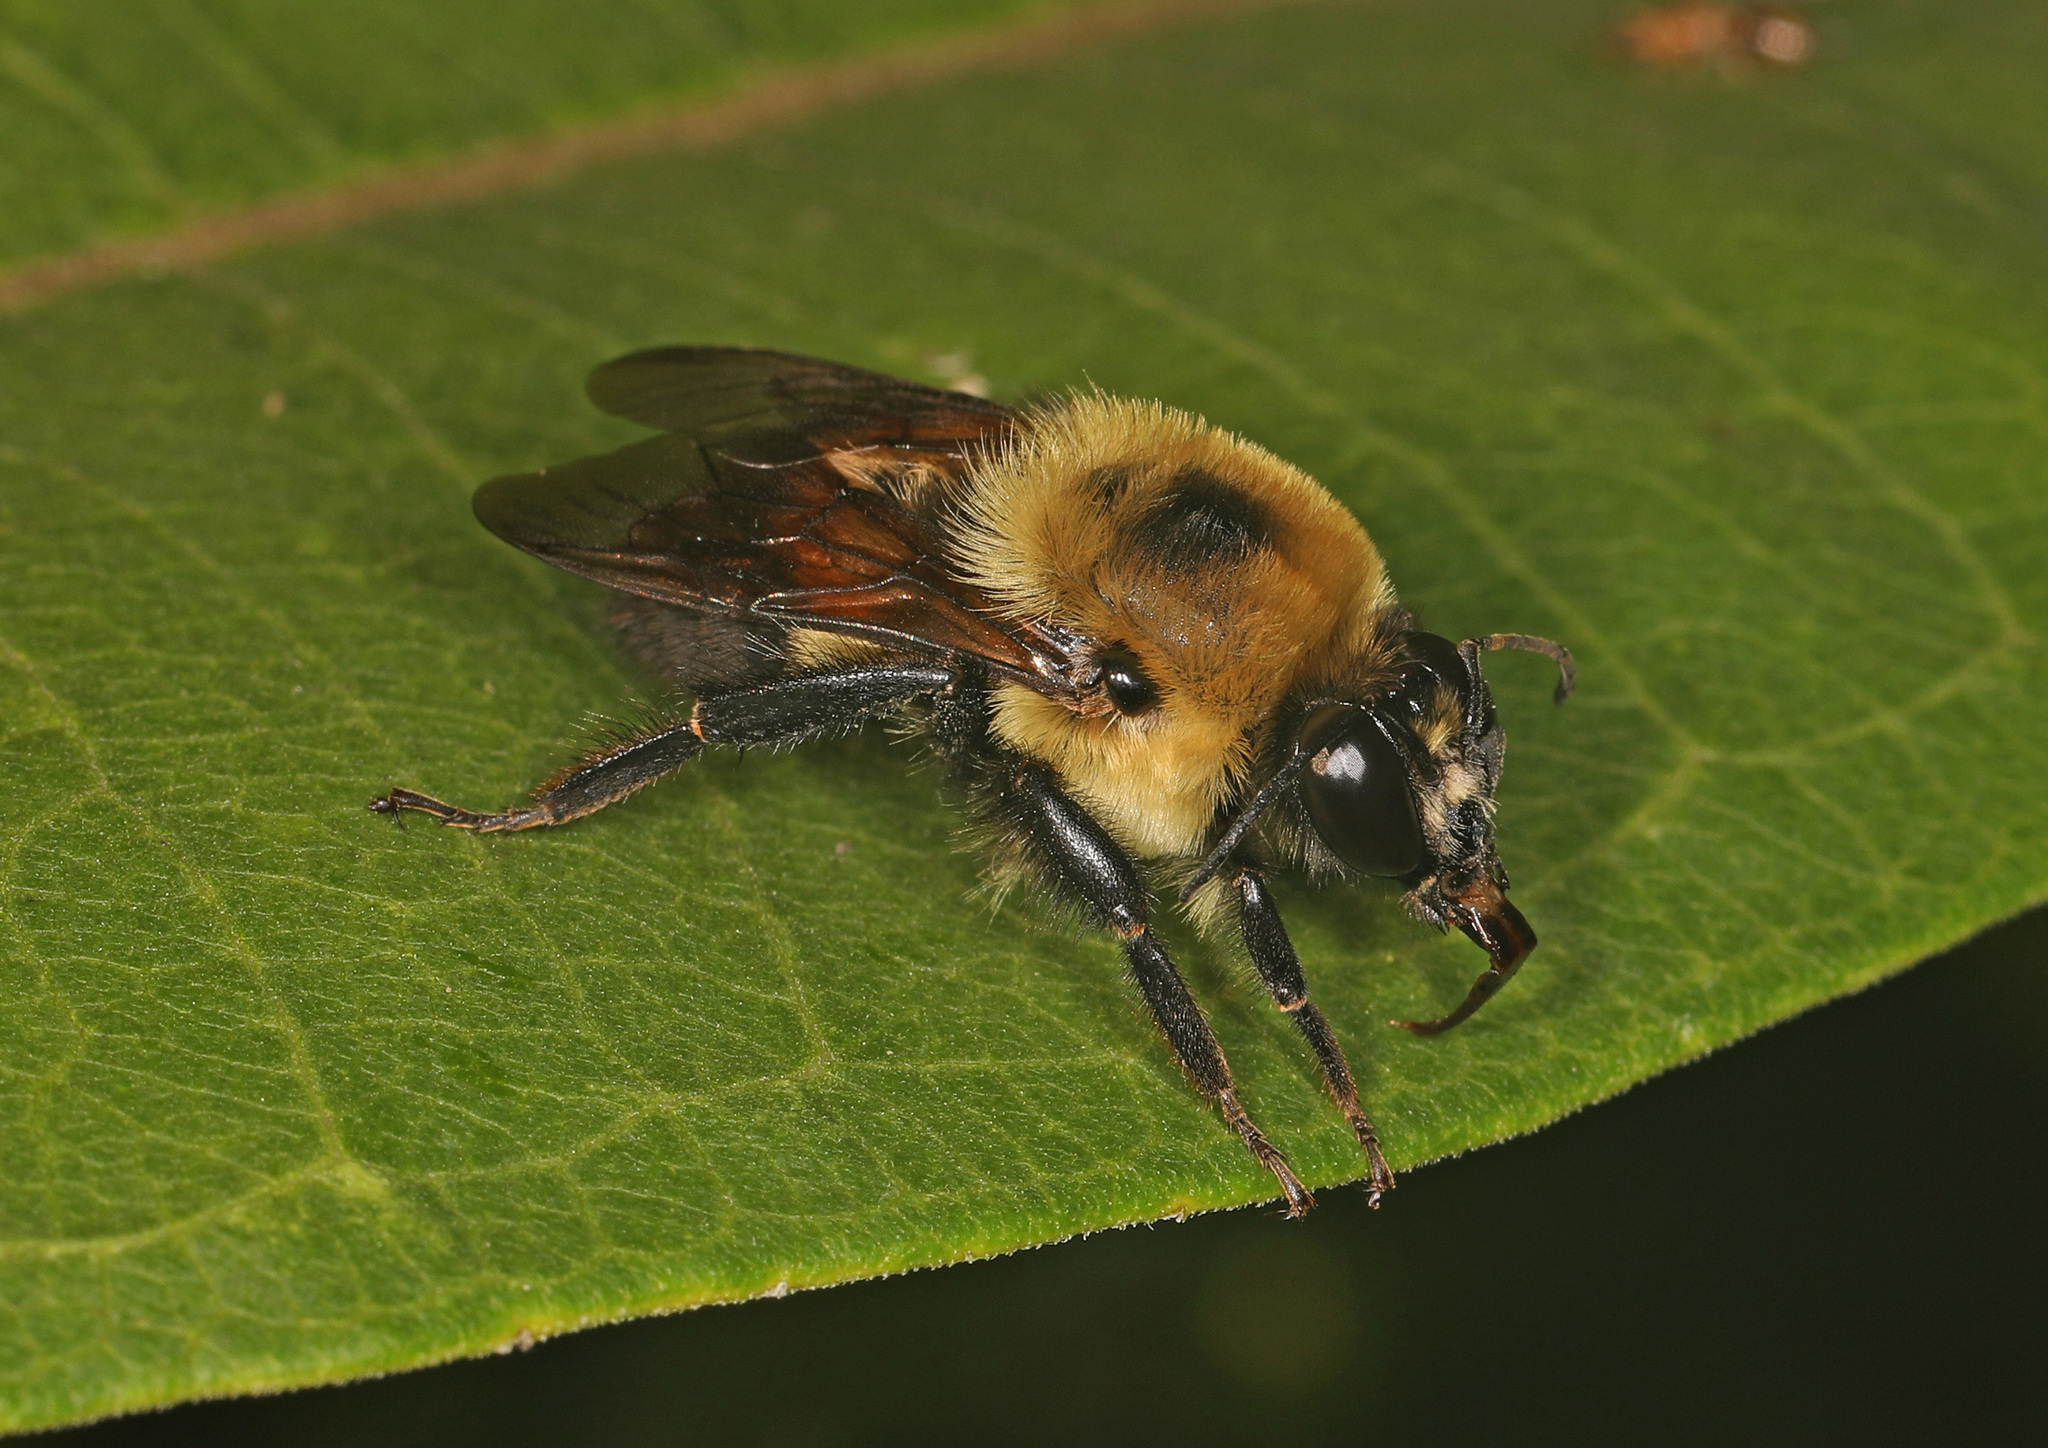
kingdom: Animalia
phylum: Arthropoda
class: Insecta
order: Hymenoptera
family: Apidae
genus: Bombus
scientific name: Bombus griseocollis
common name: Brown-belted bumble bee
